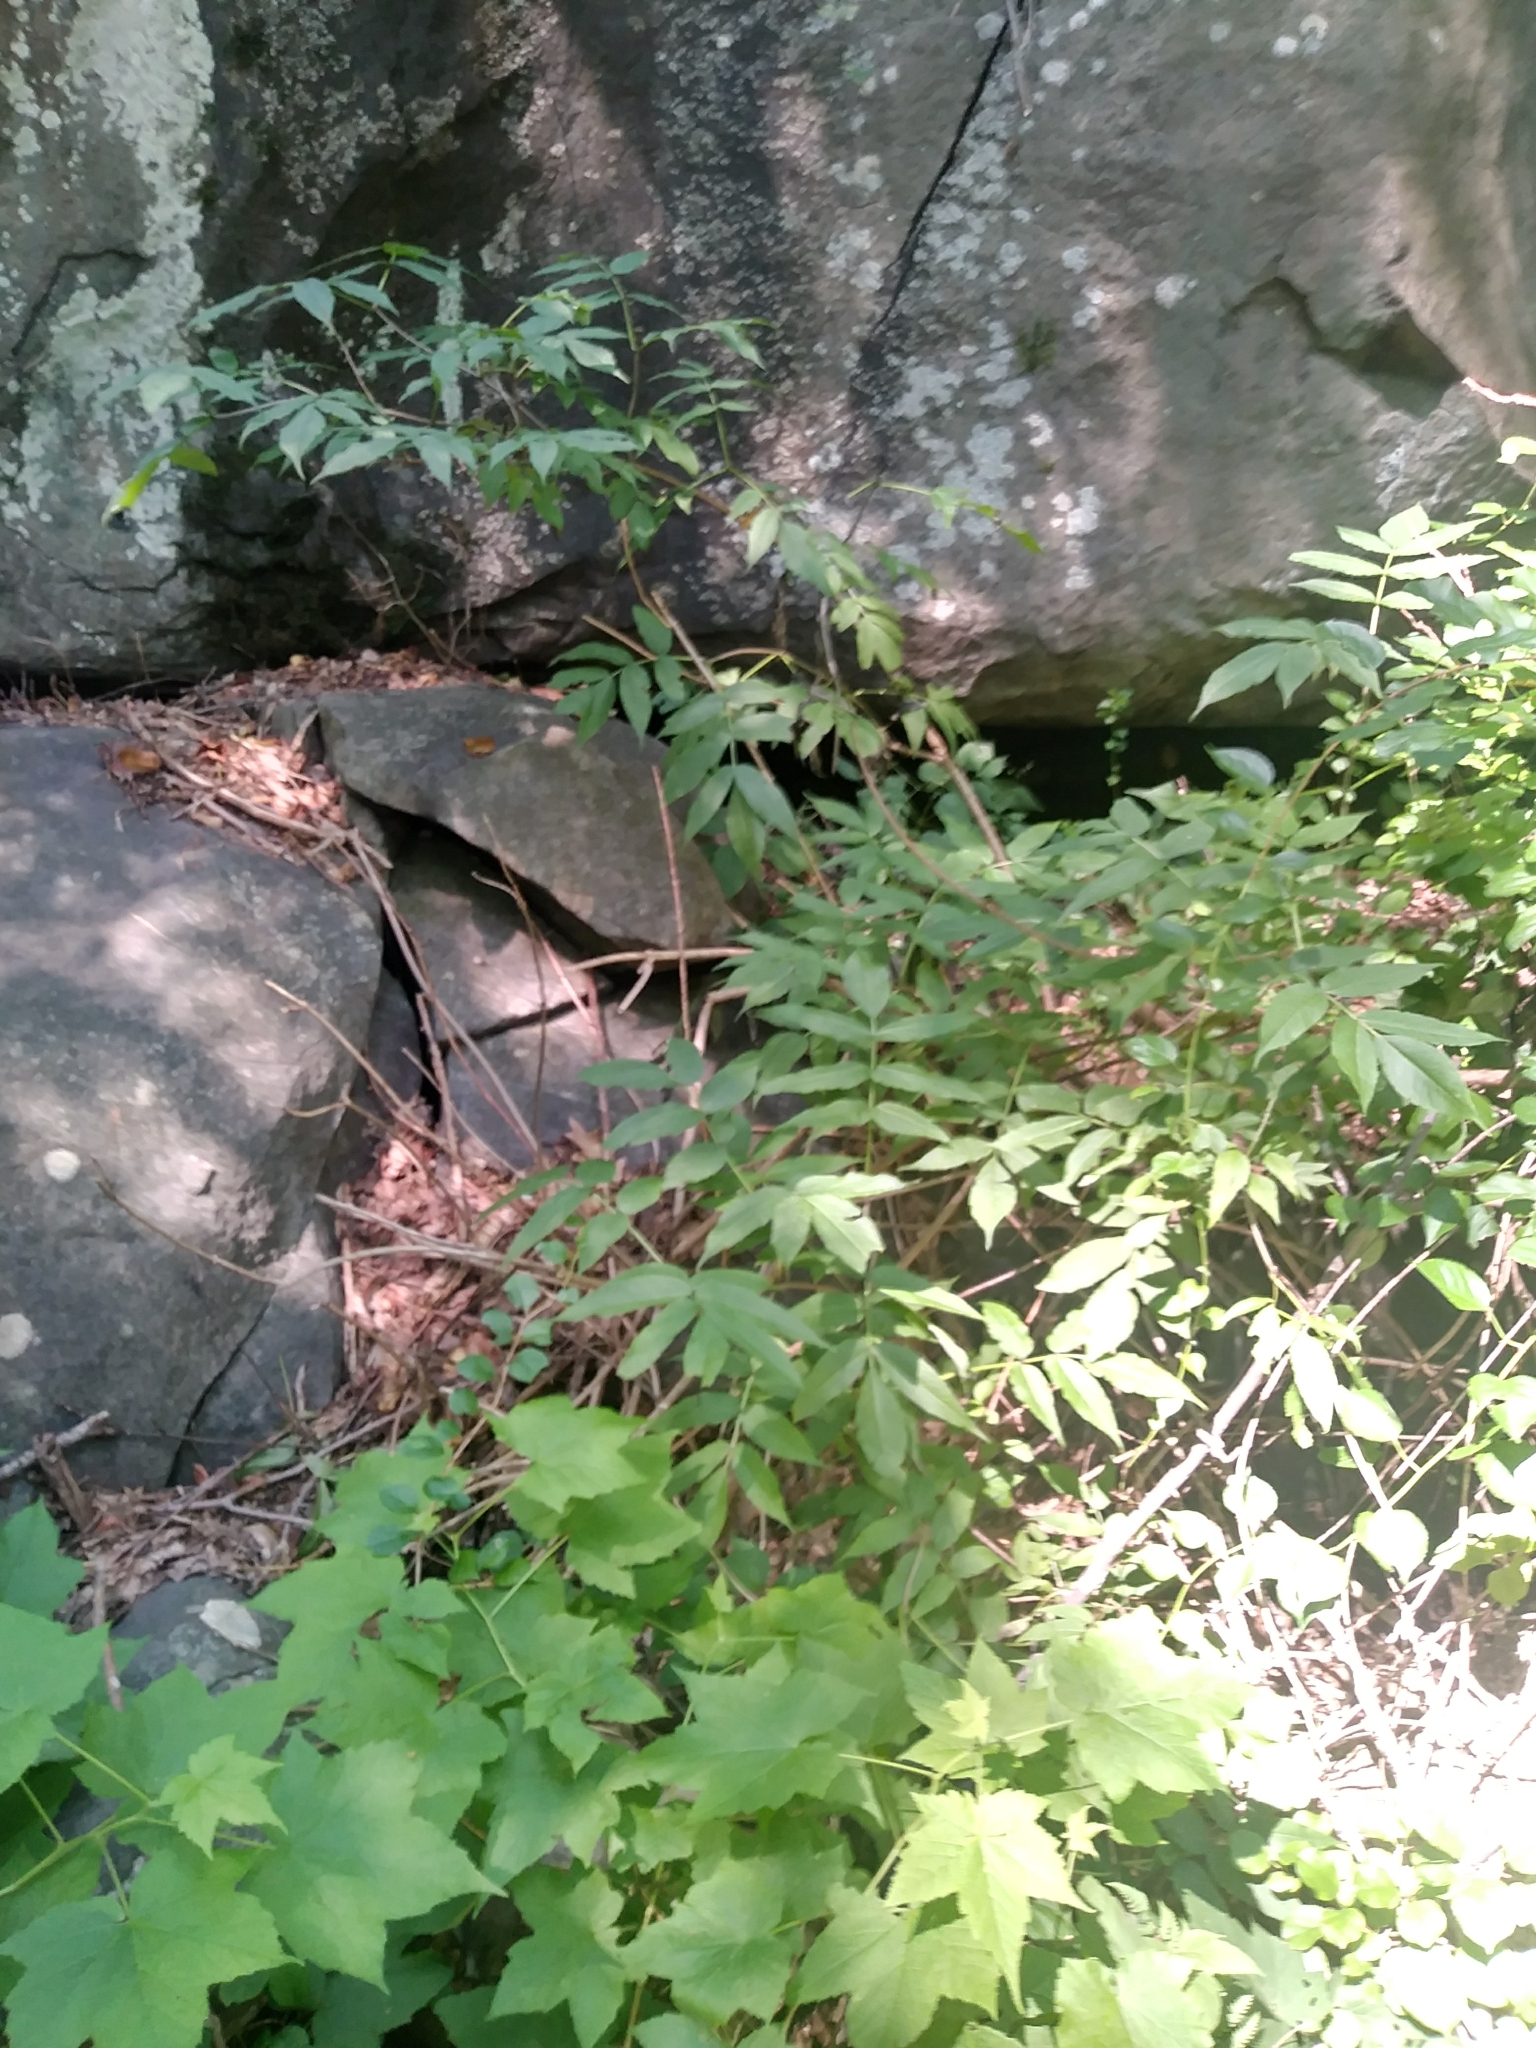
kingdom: Plantae
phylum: Tracheophyta
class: Magnoliopsida
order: Dipsacales
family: Viburnaceae
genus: Sambucus
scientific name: Sambucus racemosa
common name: Red-berried elder
